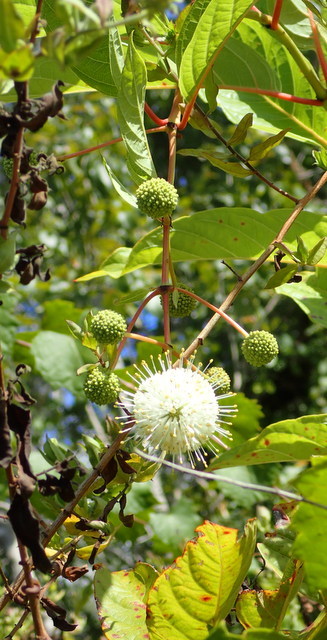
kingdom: Plantae
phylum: Tracheophyta
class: Magnoliopsida
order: Gentianales
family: Rubiaceae
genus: Cephalanthus
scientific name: Cephalanthus occidentalis
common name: Button-willow
